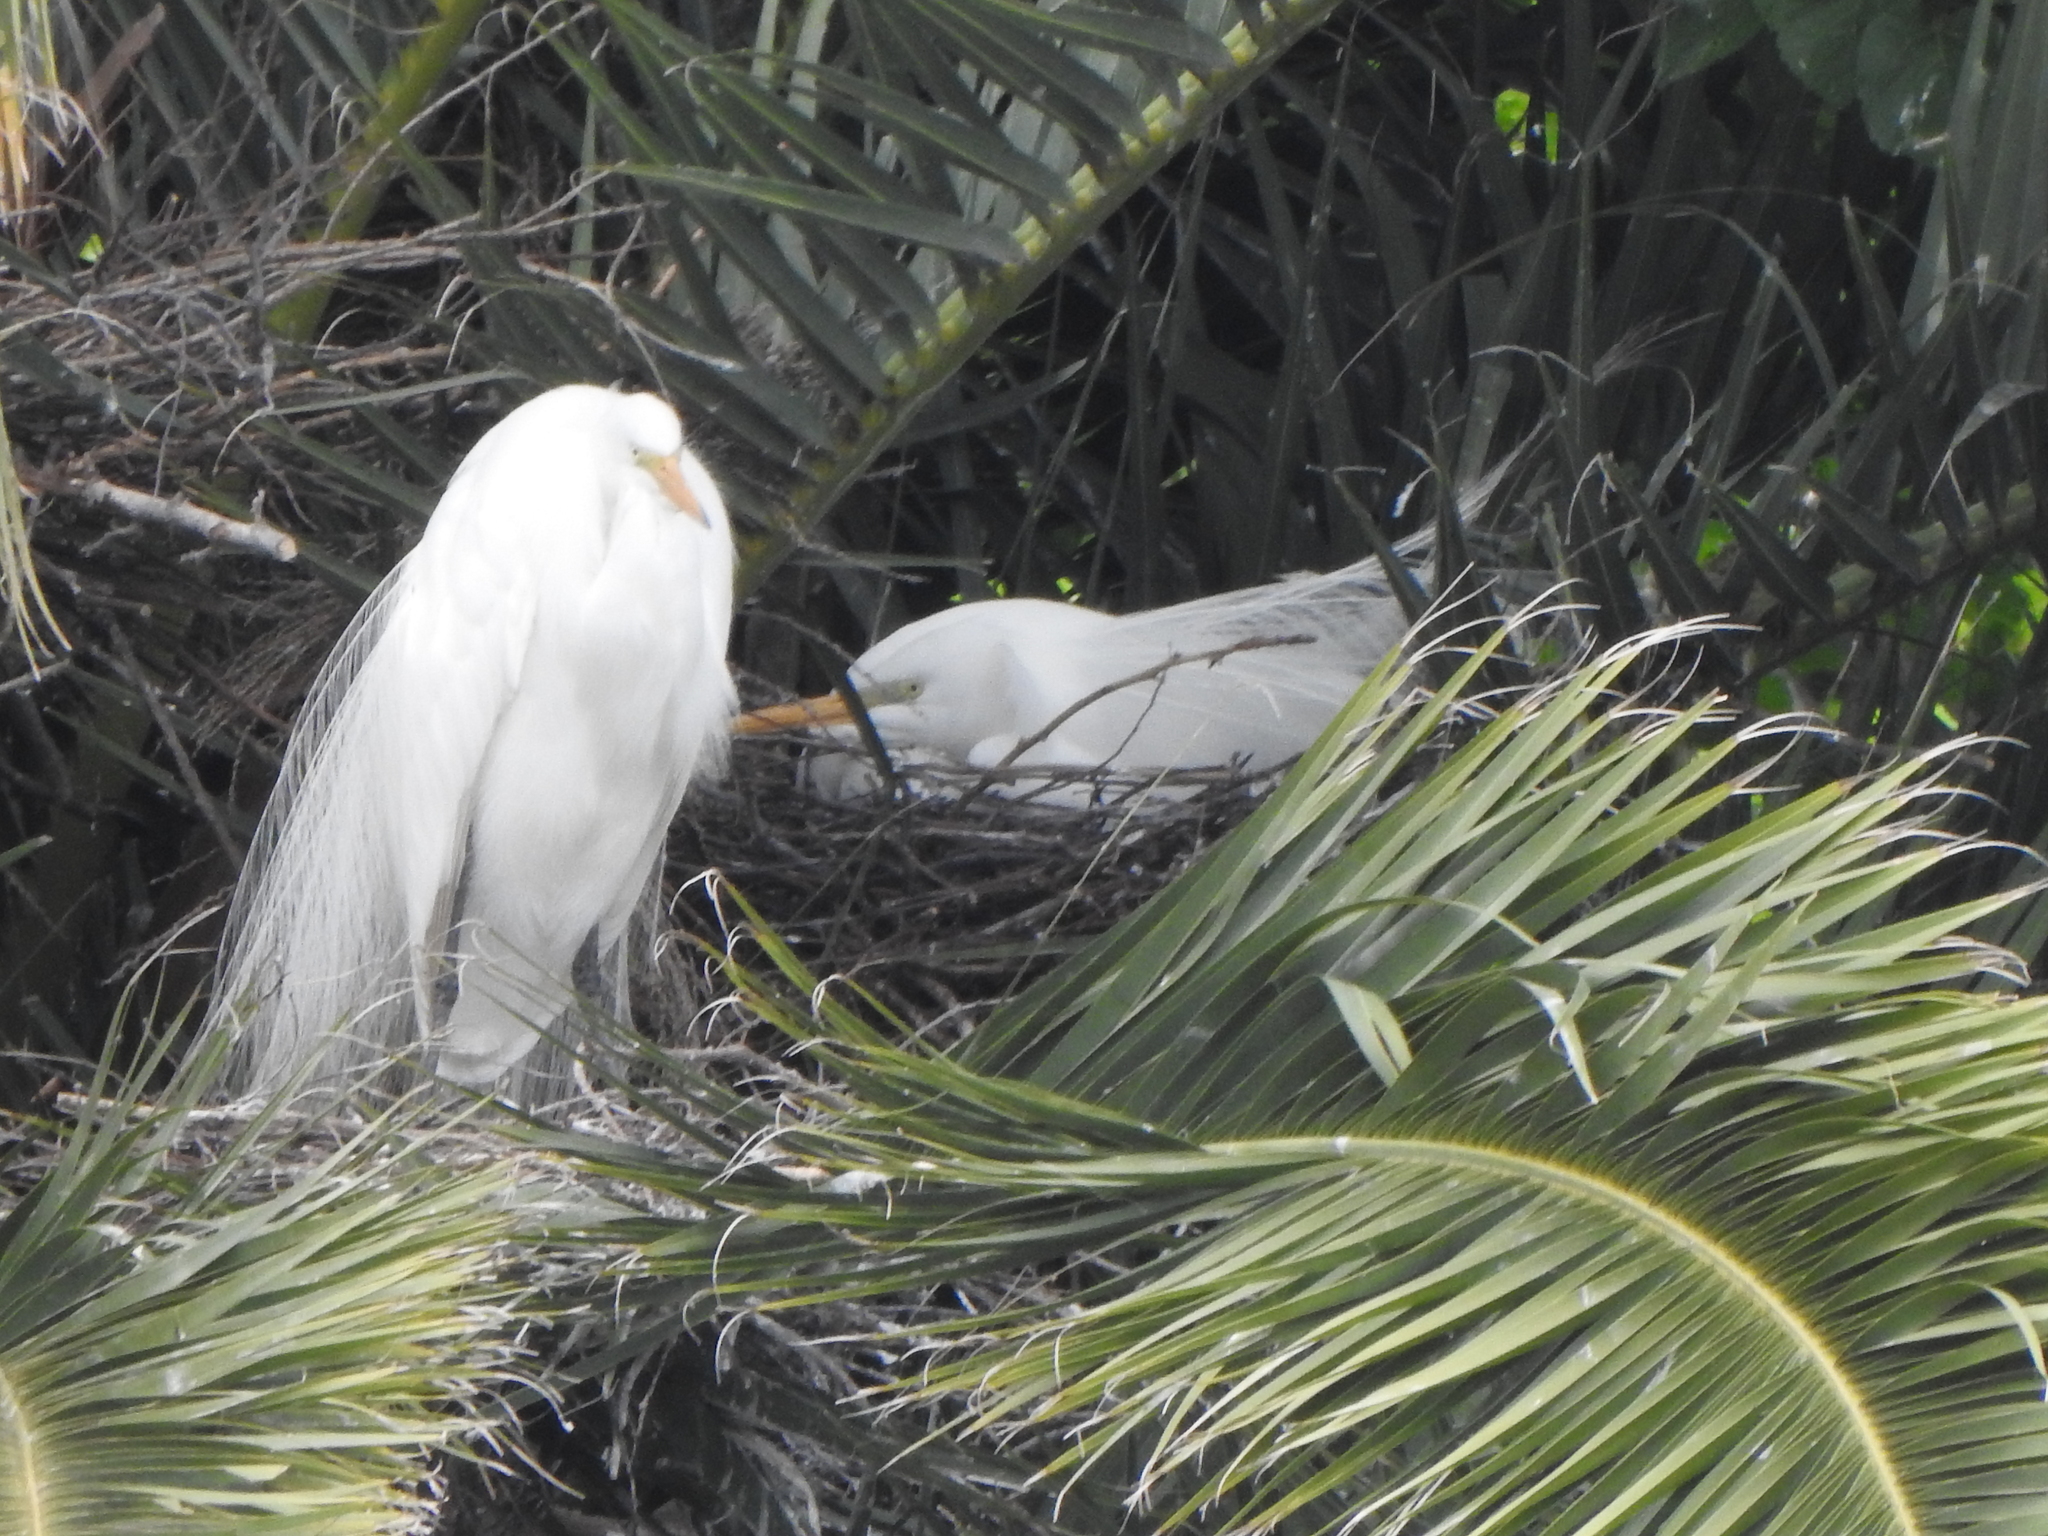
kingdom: Animalia
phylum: Chordata
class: Aves
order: Pelecaniformes
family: Ardeidae
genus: Ardea
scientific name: Ardea alba
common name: Great egret
